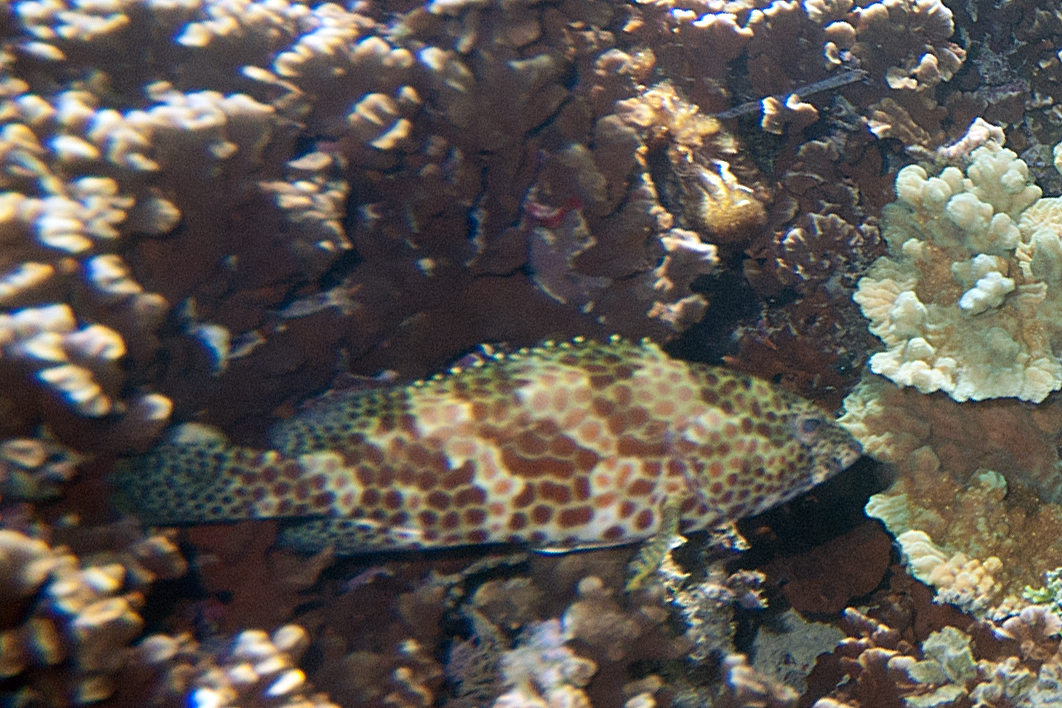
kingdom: Animalia
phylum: Chordata
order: Perciformes
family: Serranidae
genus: Epinephelus
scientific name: Epinephelus merra
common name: Honeycomb grouper
